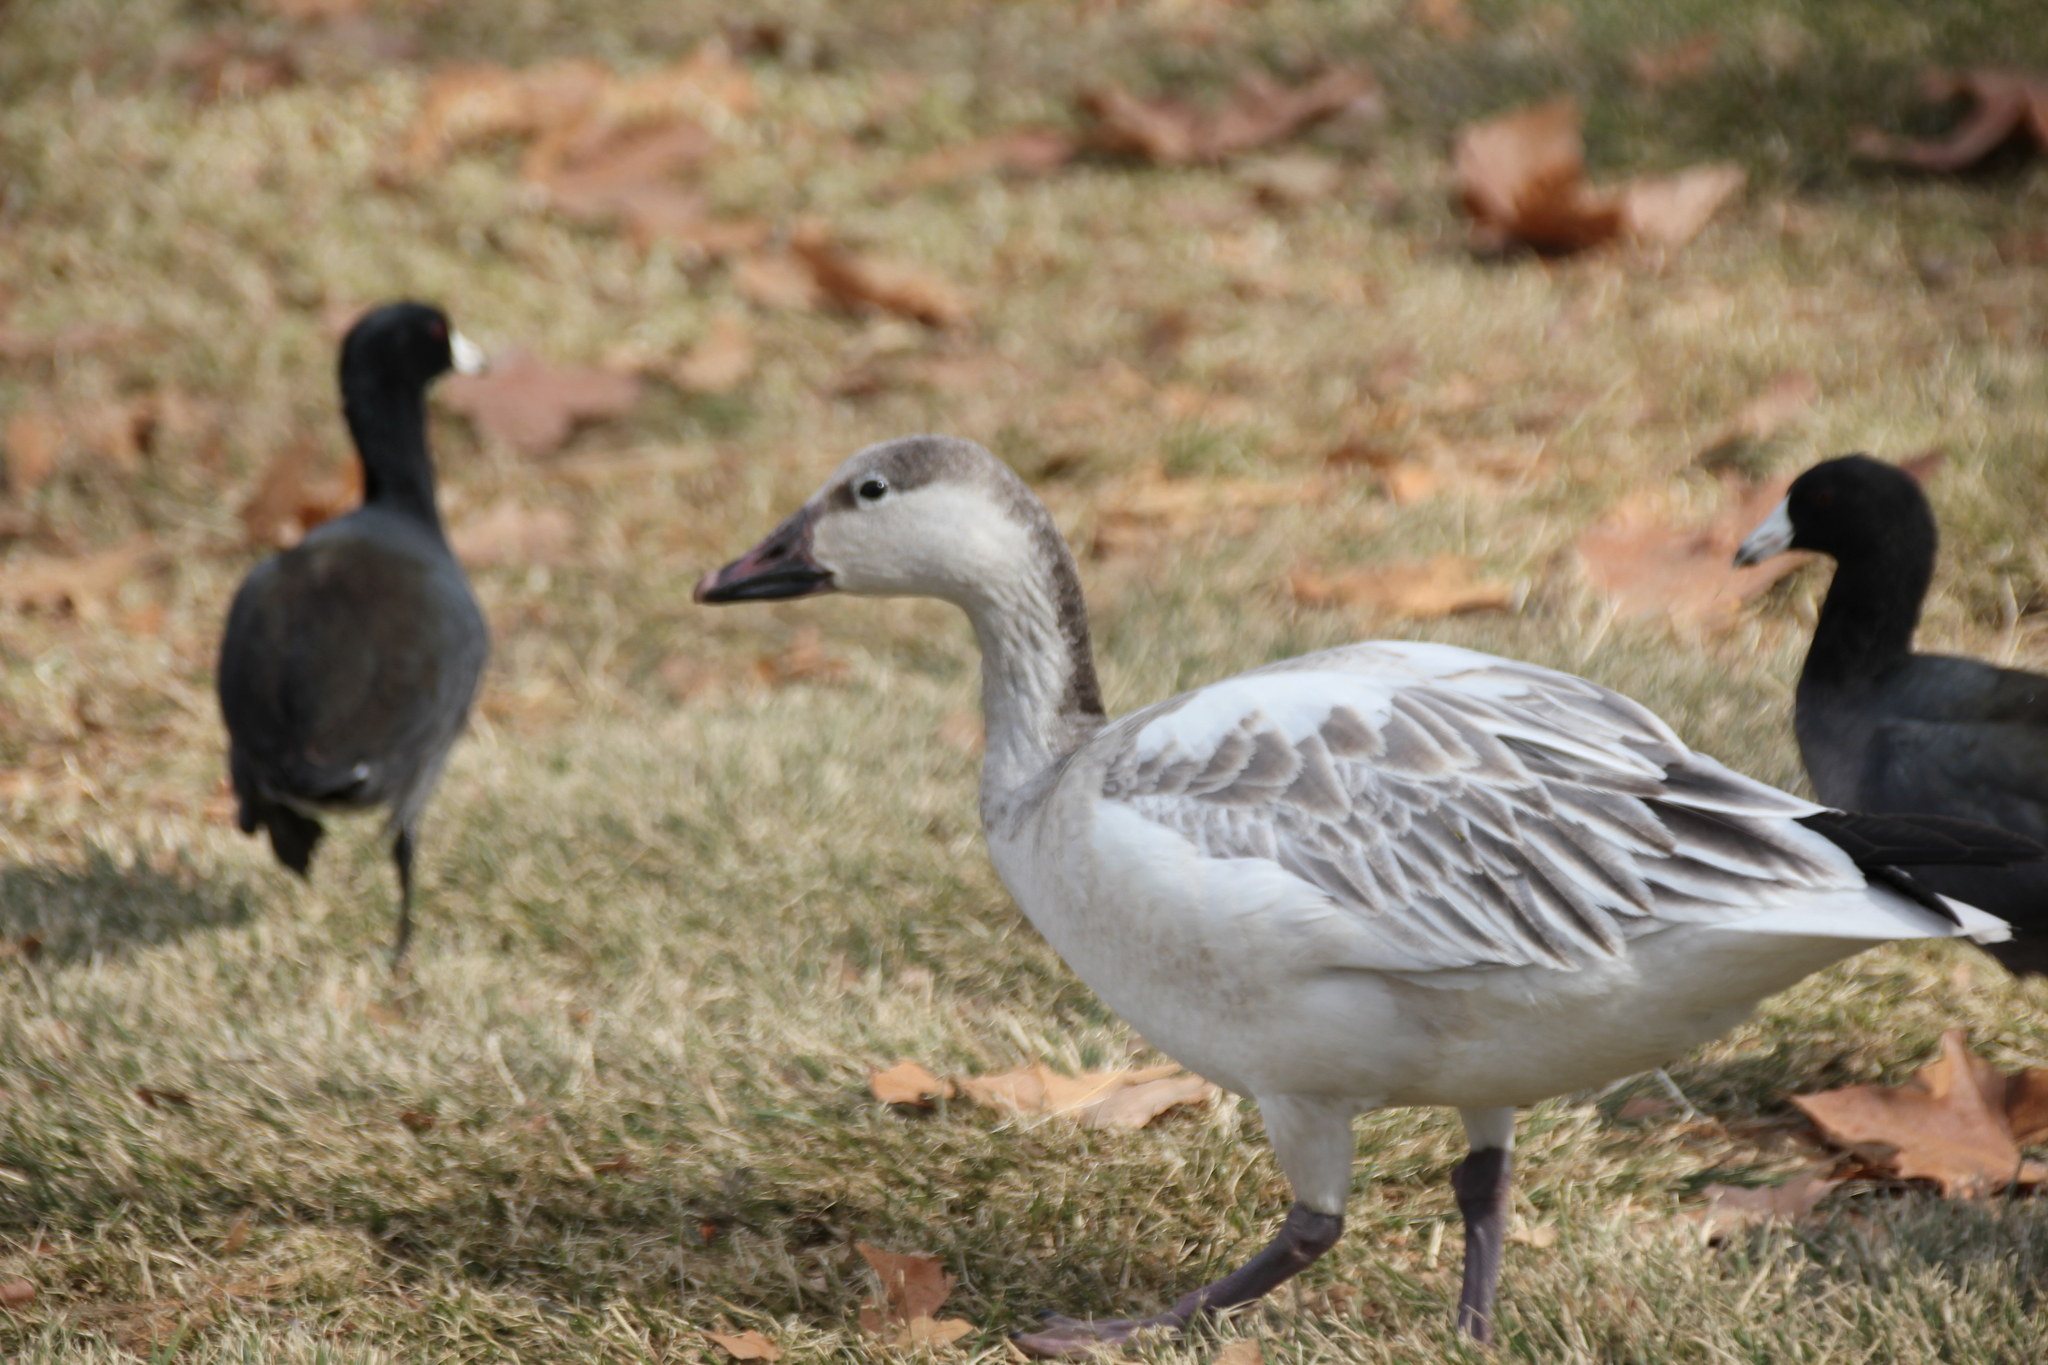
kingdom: Animalia
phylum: Chordata
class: Aves
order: Anseriformes
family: Anatidae
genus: Anser
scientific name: Anser caerulescens
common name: Snow goose
